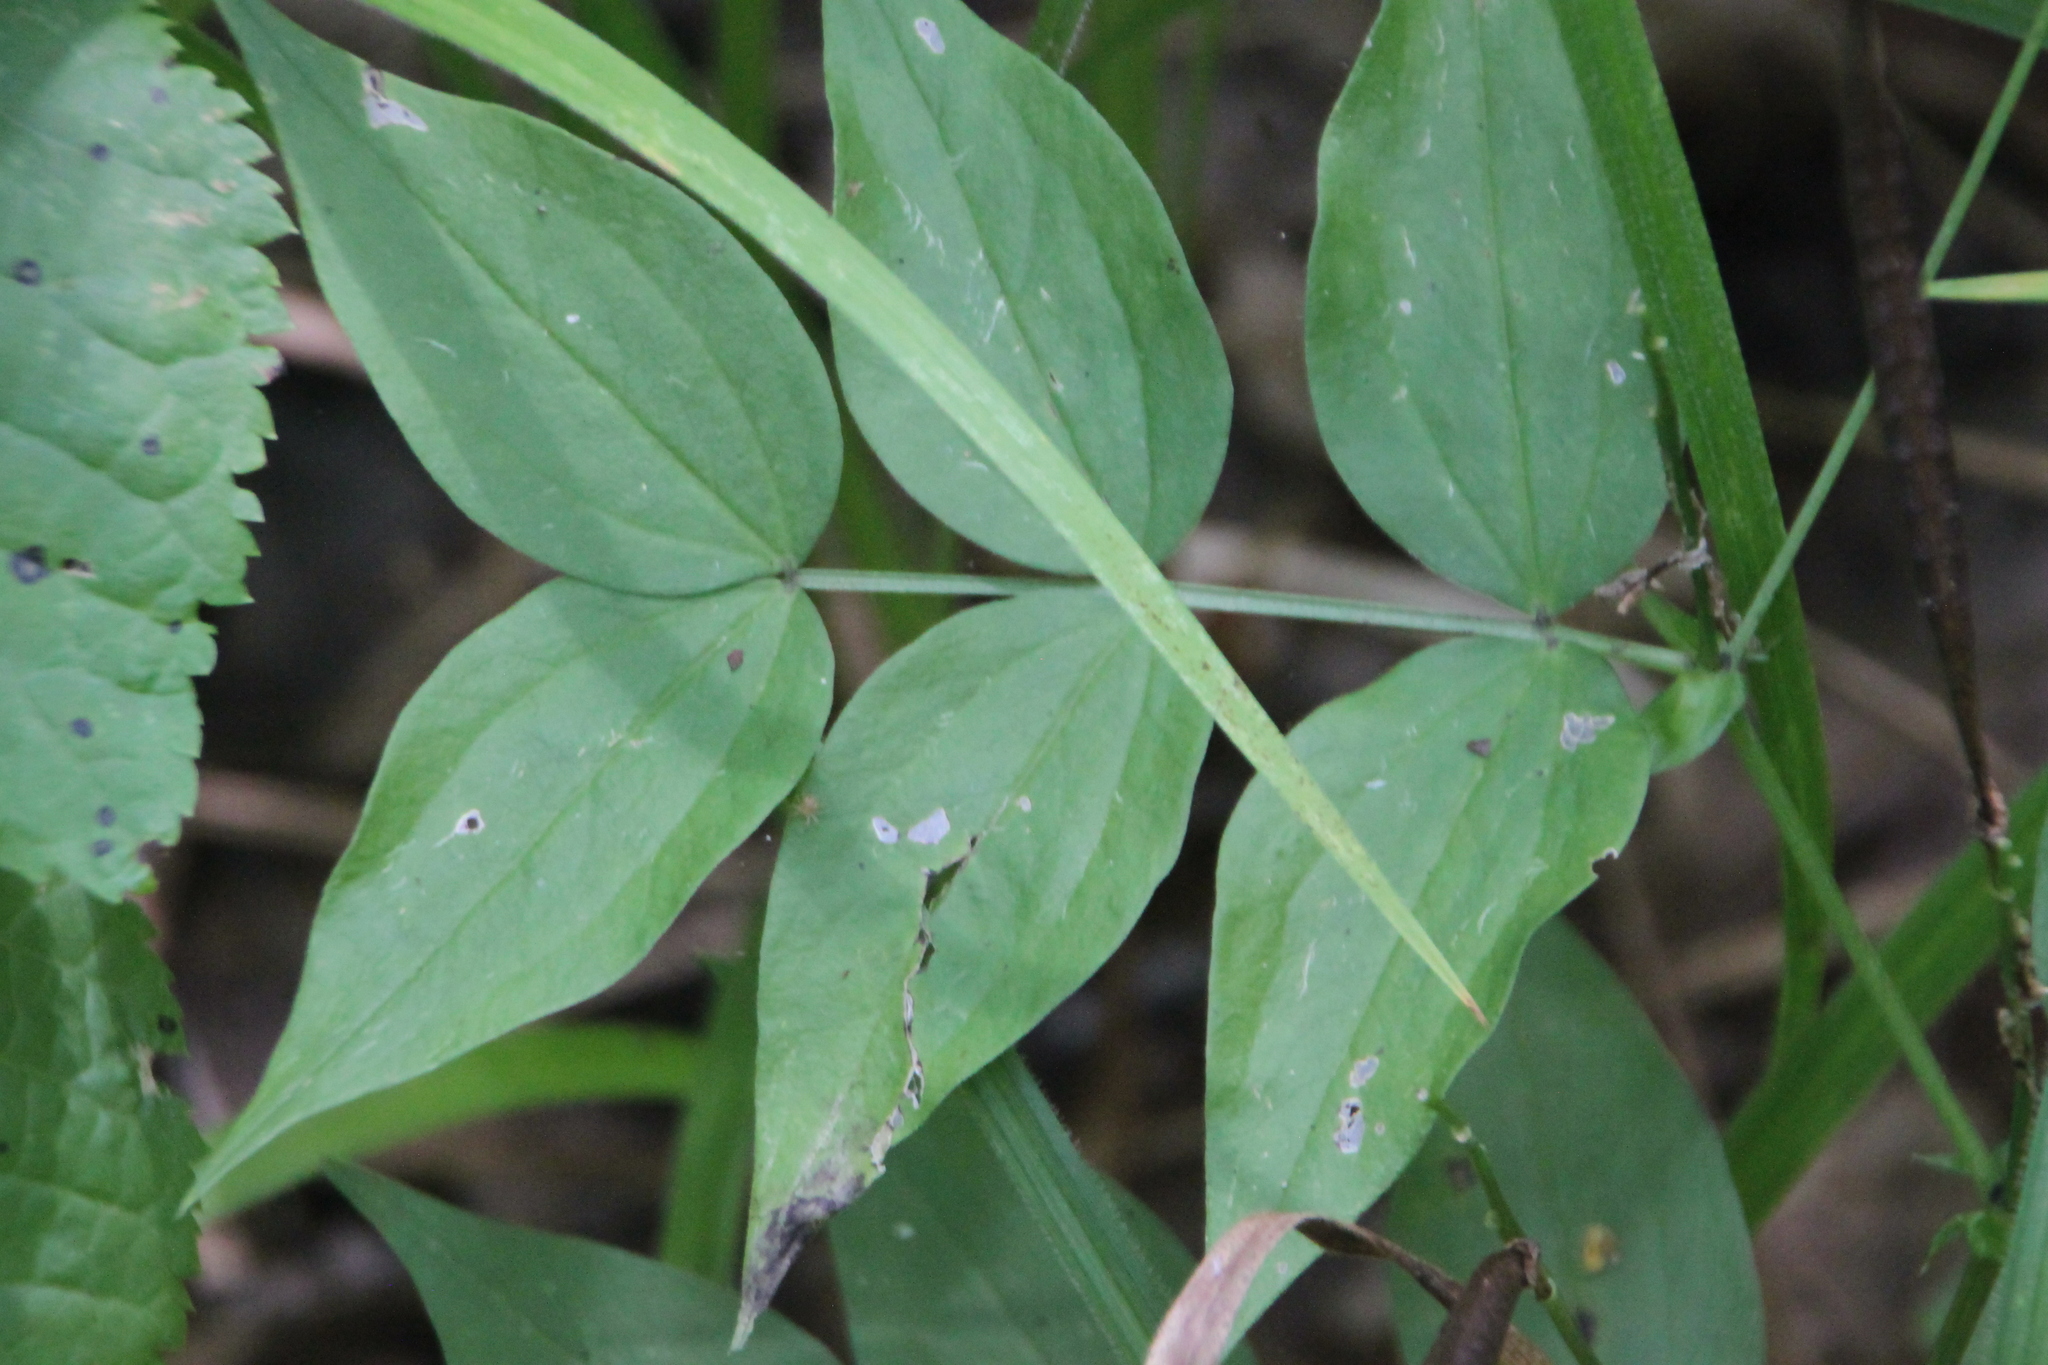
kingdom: Plantae
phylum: Tracheophyta
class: Magnoliopsida
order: Fabales
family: Fabaceae
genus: Lathyrus
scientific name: Lathyrus vernus
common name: Spring pea
